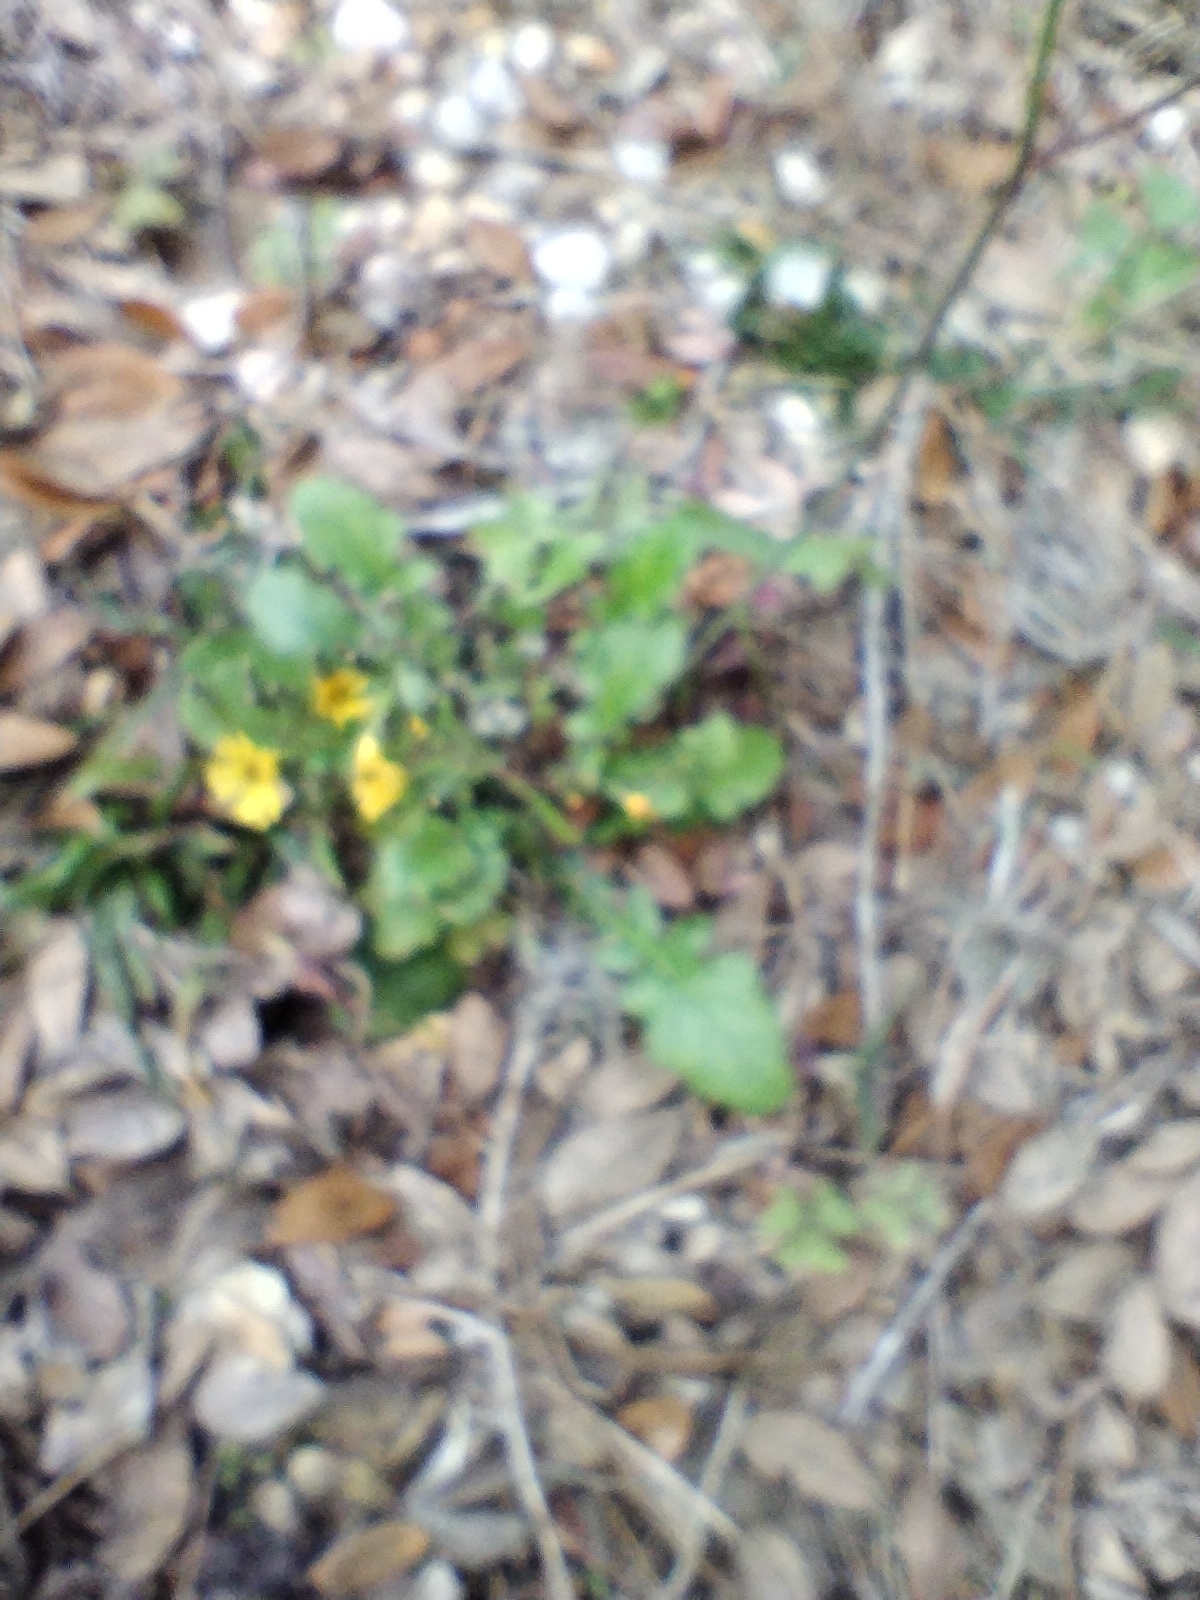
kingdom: Plantae
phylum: Tracheophyta
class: Magnoliopsida
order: Asterales
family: Asteraceae
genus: Youngia
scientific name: Youngia japonica
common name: Oriental false hawksbeard
